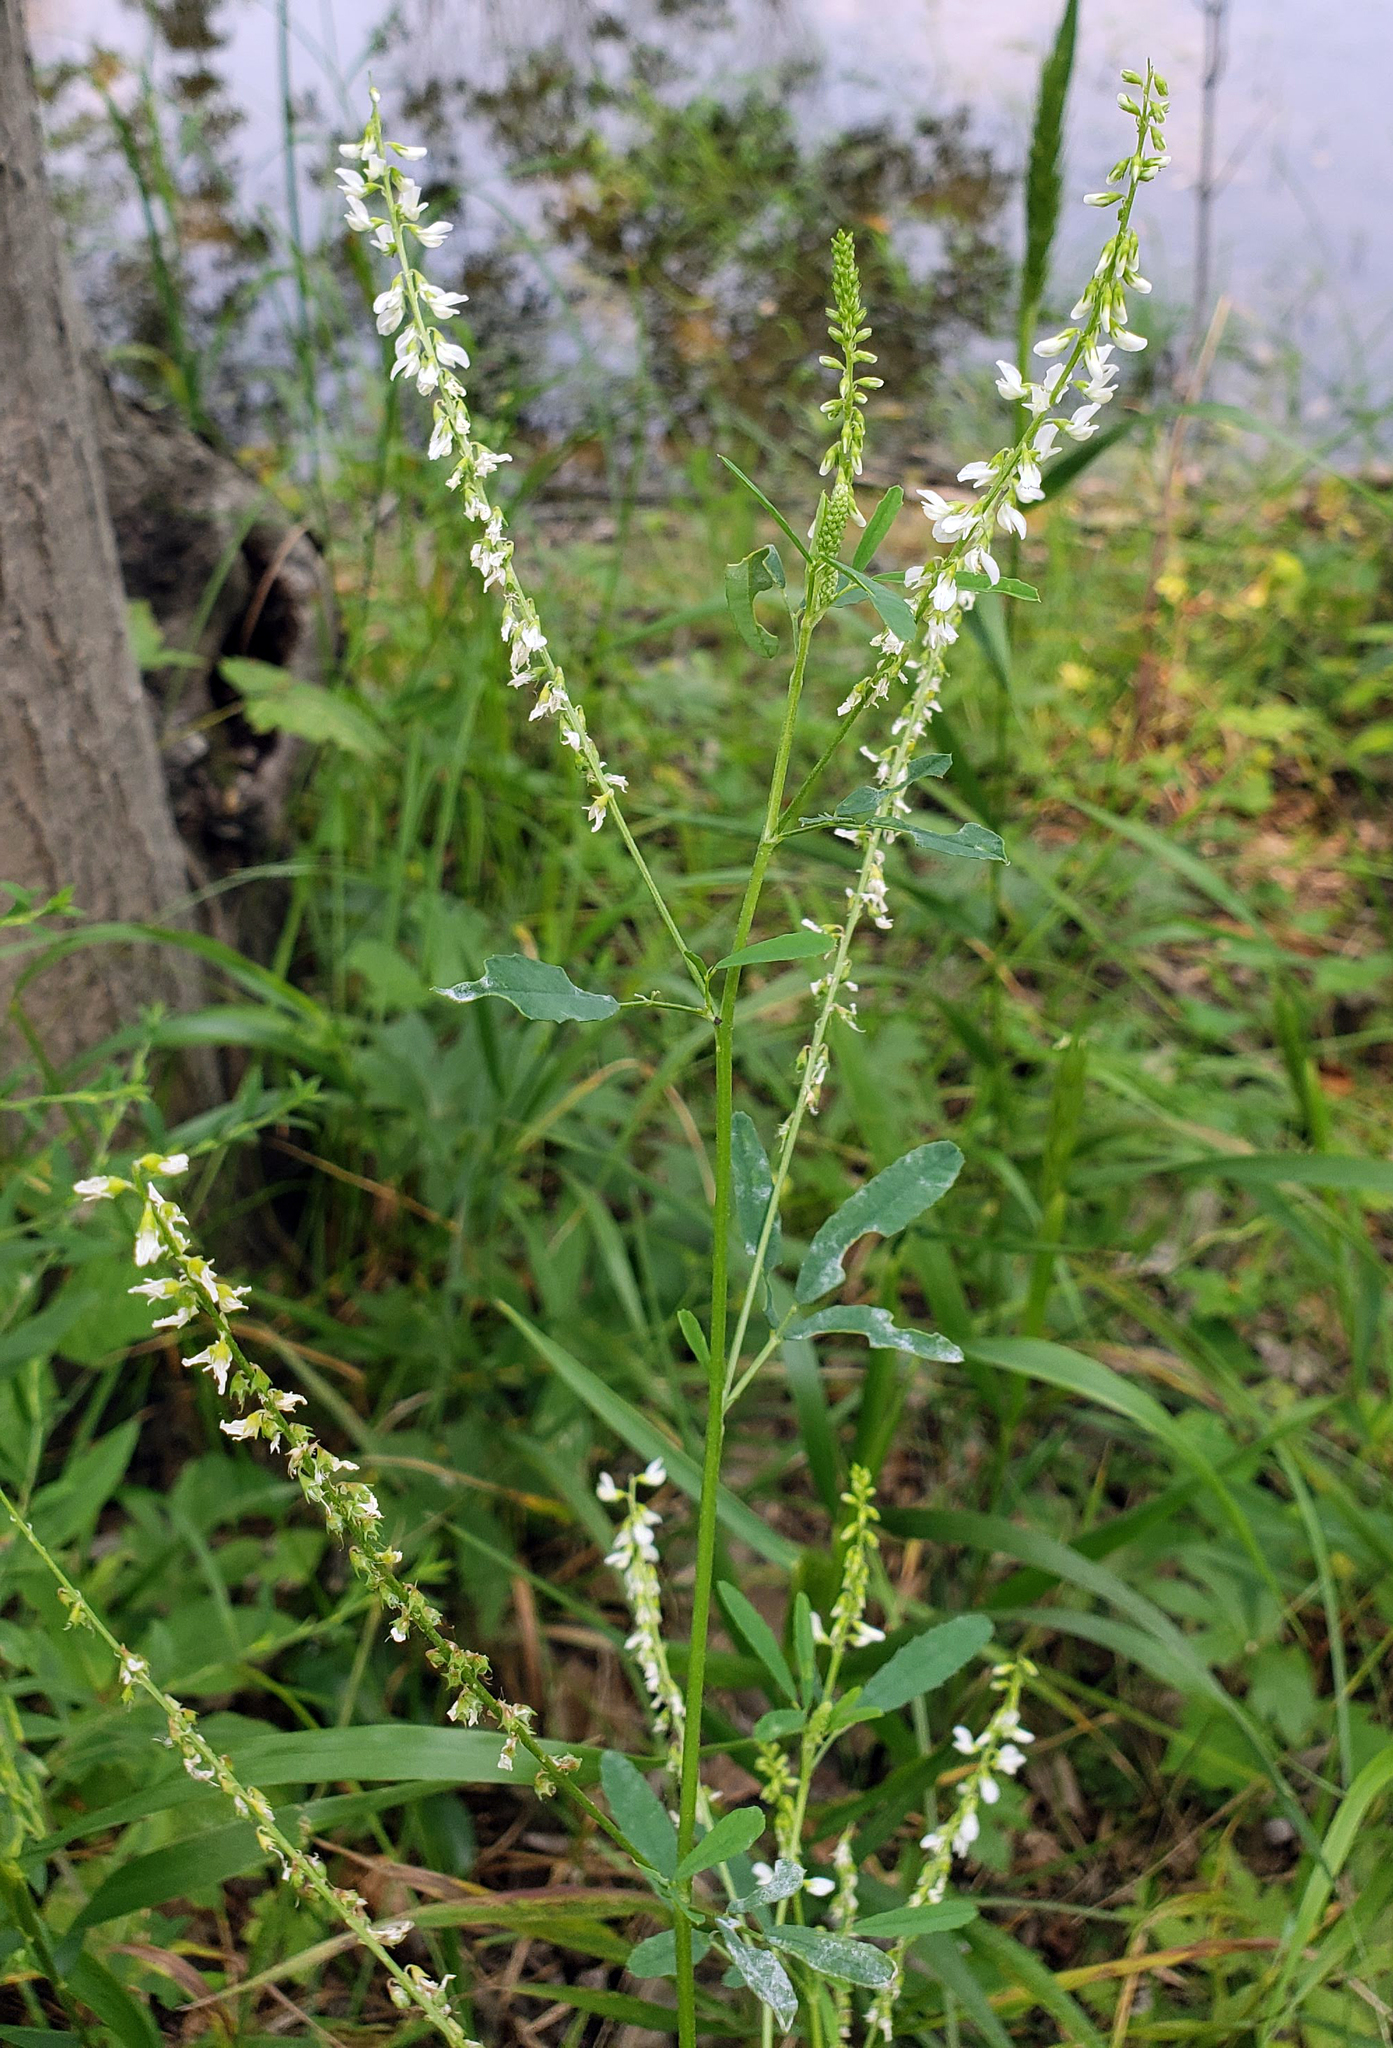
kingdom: Plantae
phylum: Tracheophyta
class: Magnoliopsida
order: Fabales
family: Fabaceae
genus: Melilotus
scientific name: Melilotus albus
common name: White melilot
